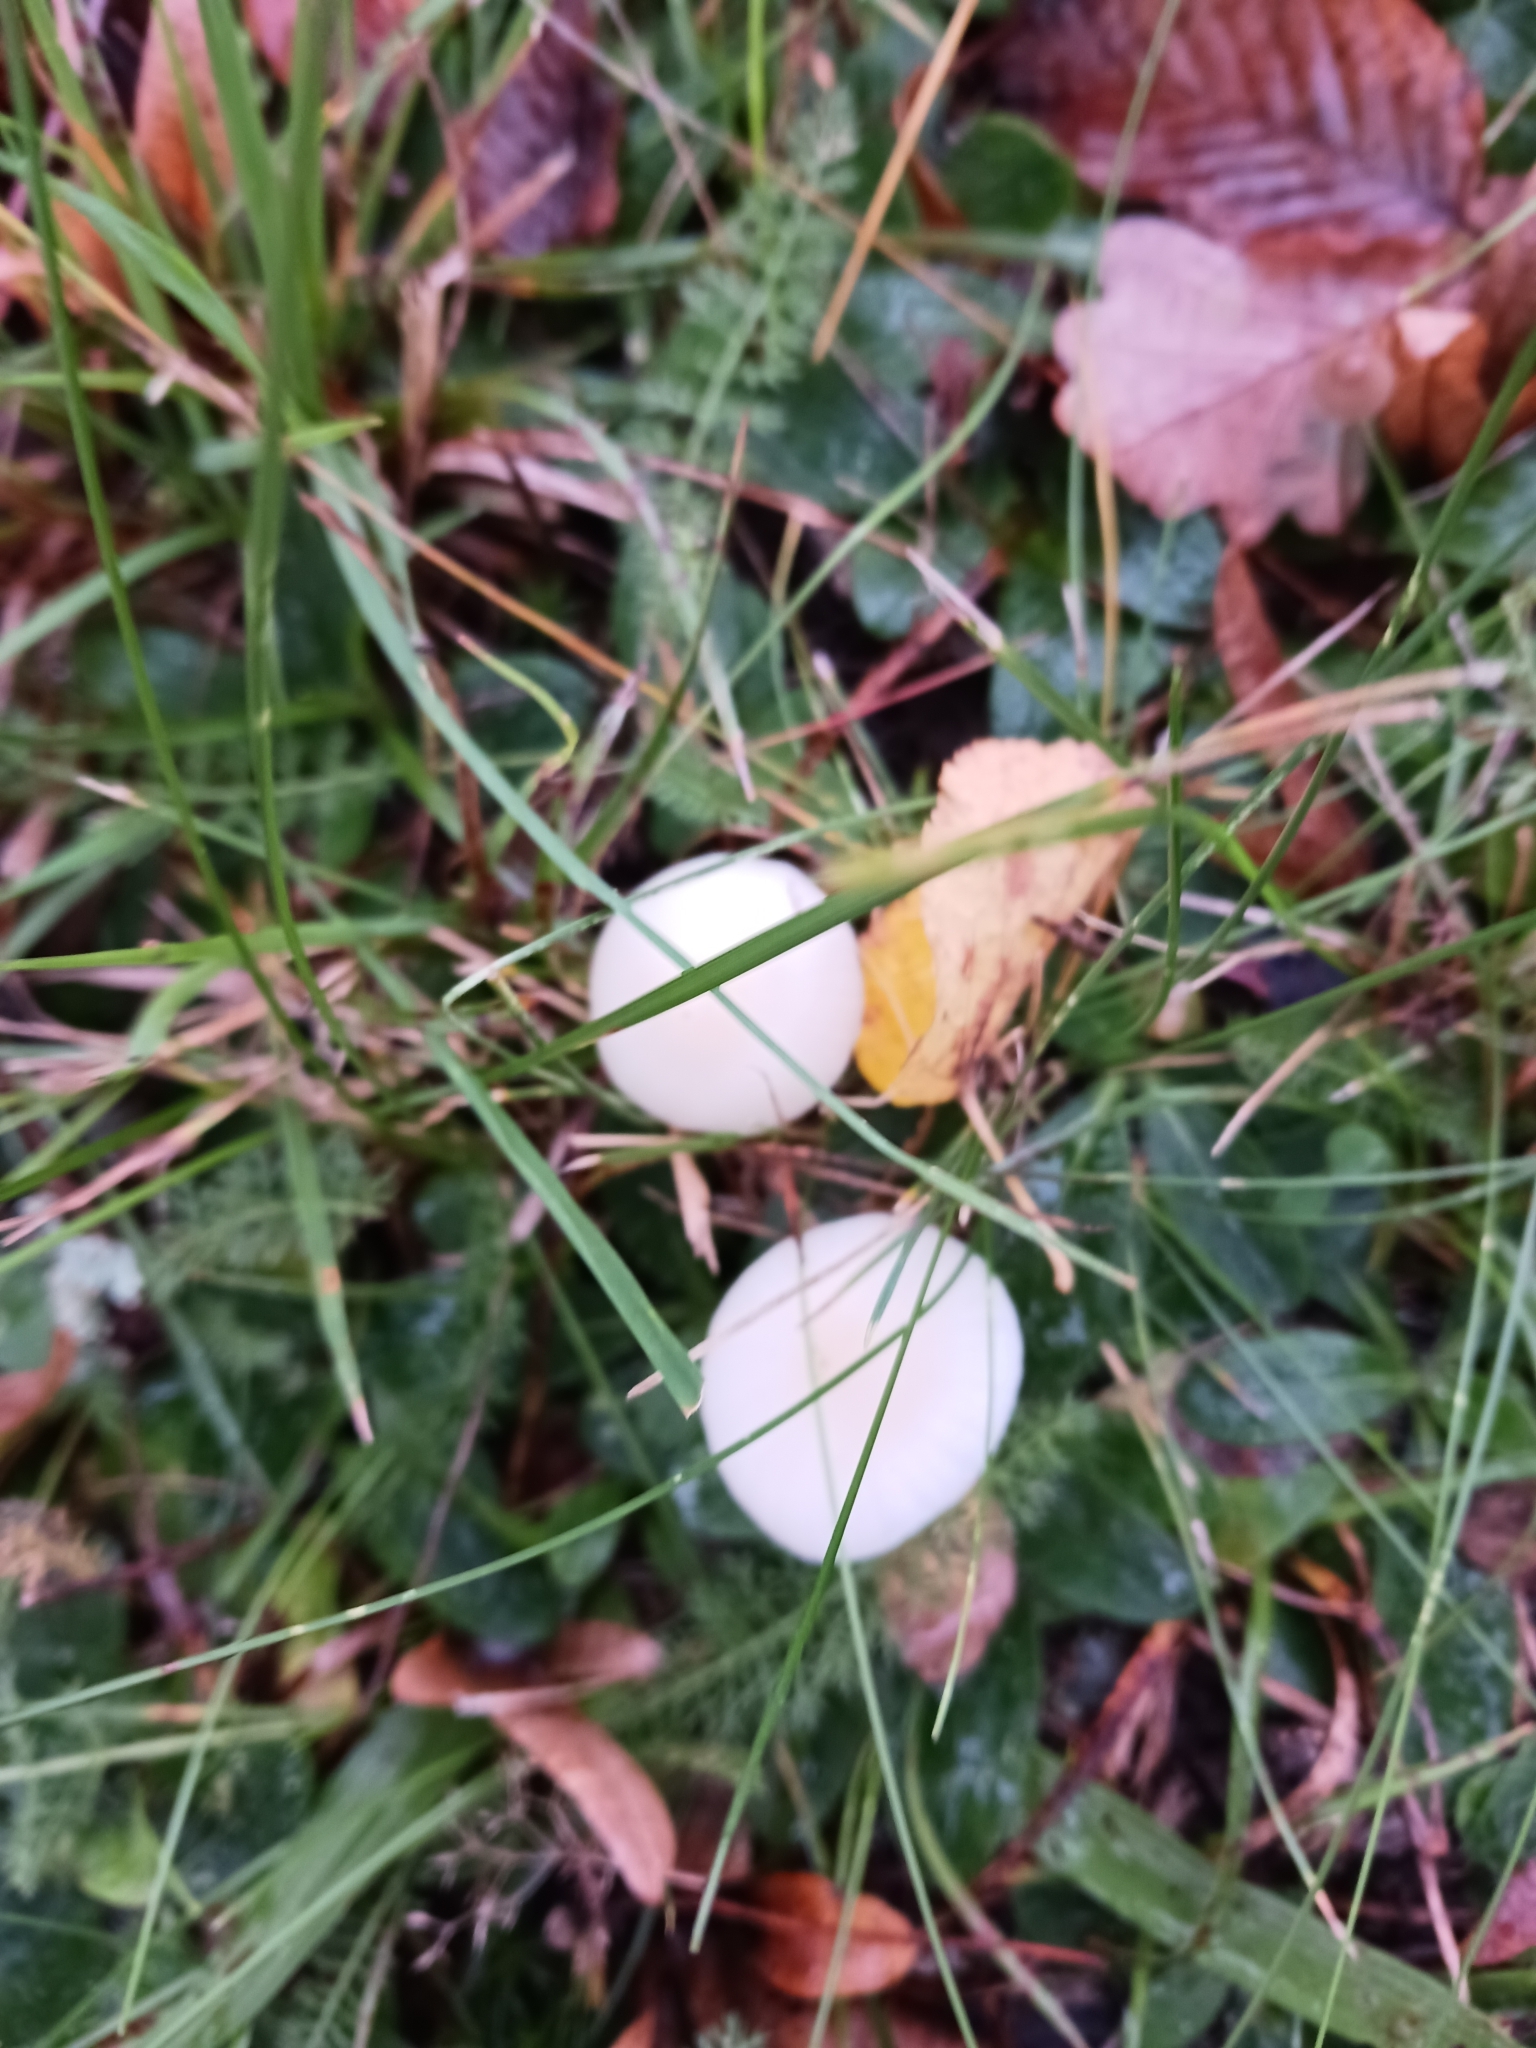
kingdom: Fungi
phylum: Basidiomycota
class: Agaricomycetes
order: Agaricales
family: Hygrophoraceae
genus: Cuphophyllus
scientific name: Cuphophyllus virgineus
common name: Snowy waxcap
